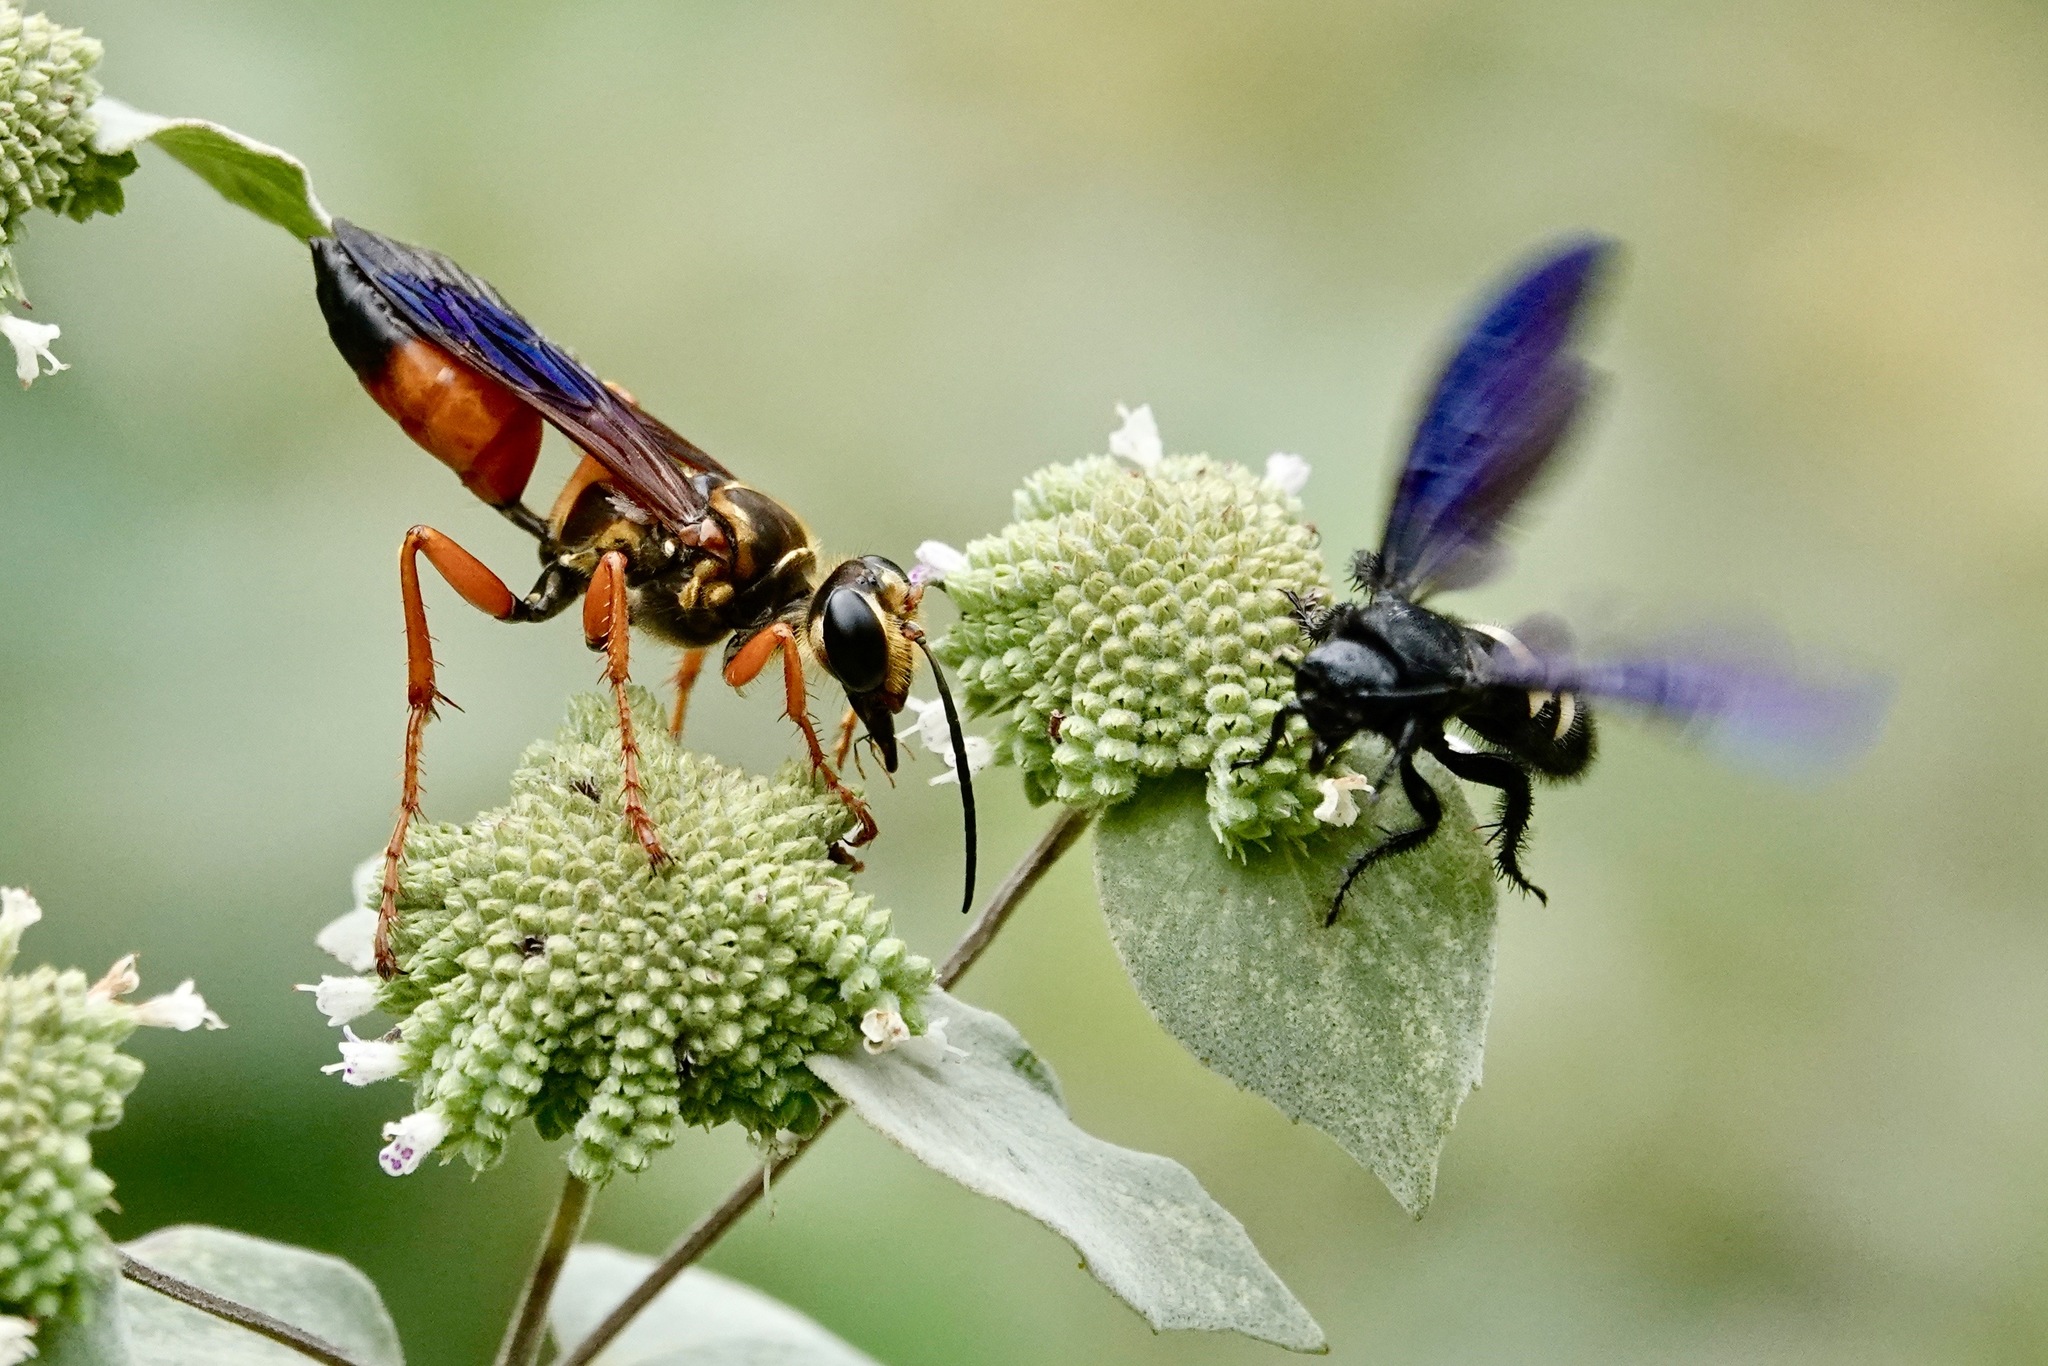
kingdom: Animalia
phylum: Arthropoda
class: Insecta
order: Hymenoptera
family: Sphecidae
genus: Sphex
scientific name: Sphex ichneumoneus
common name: Great golden digger wasp
